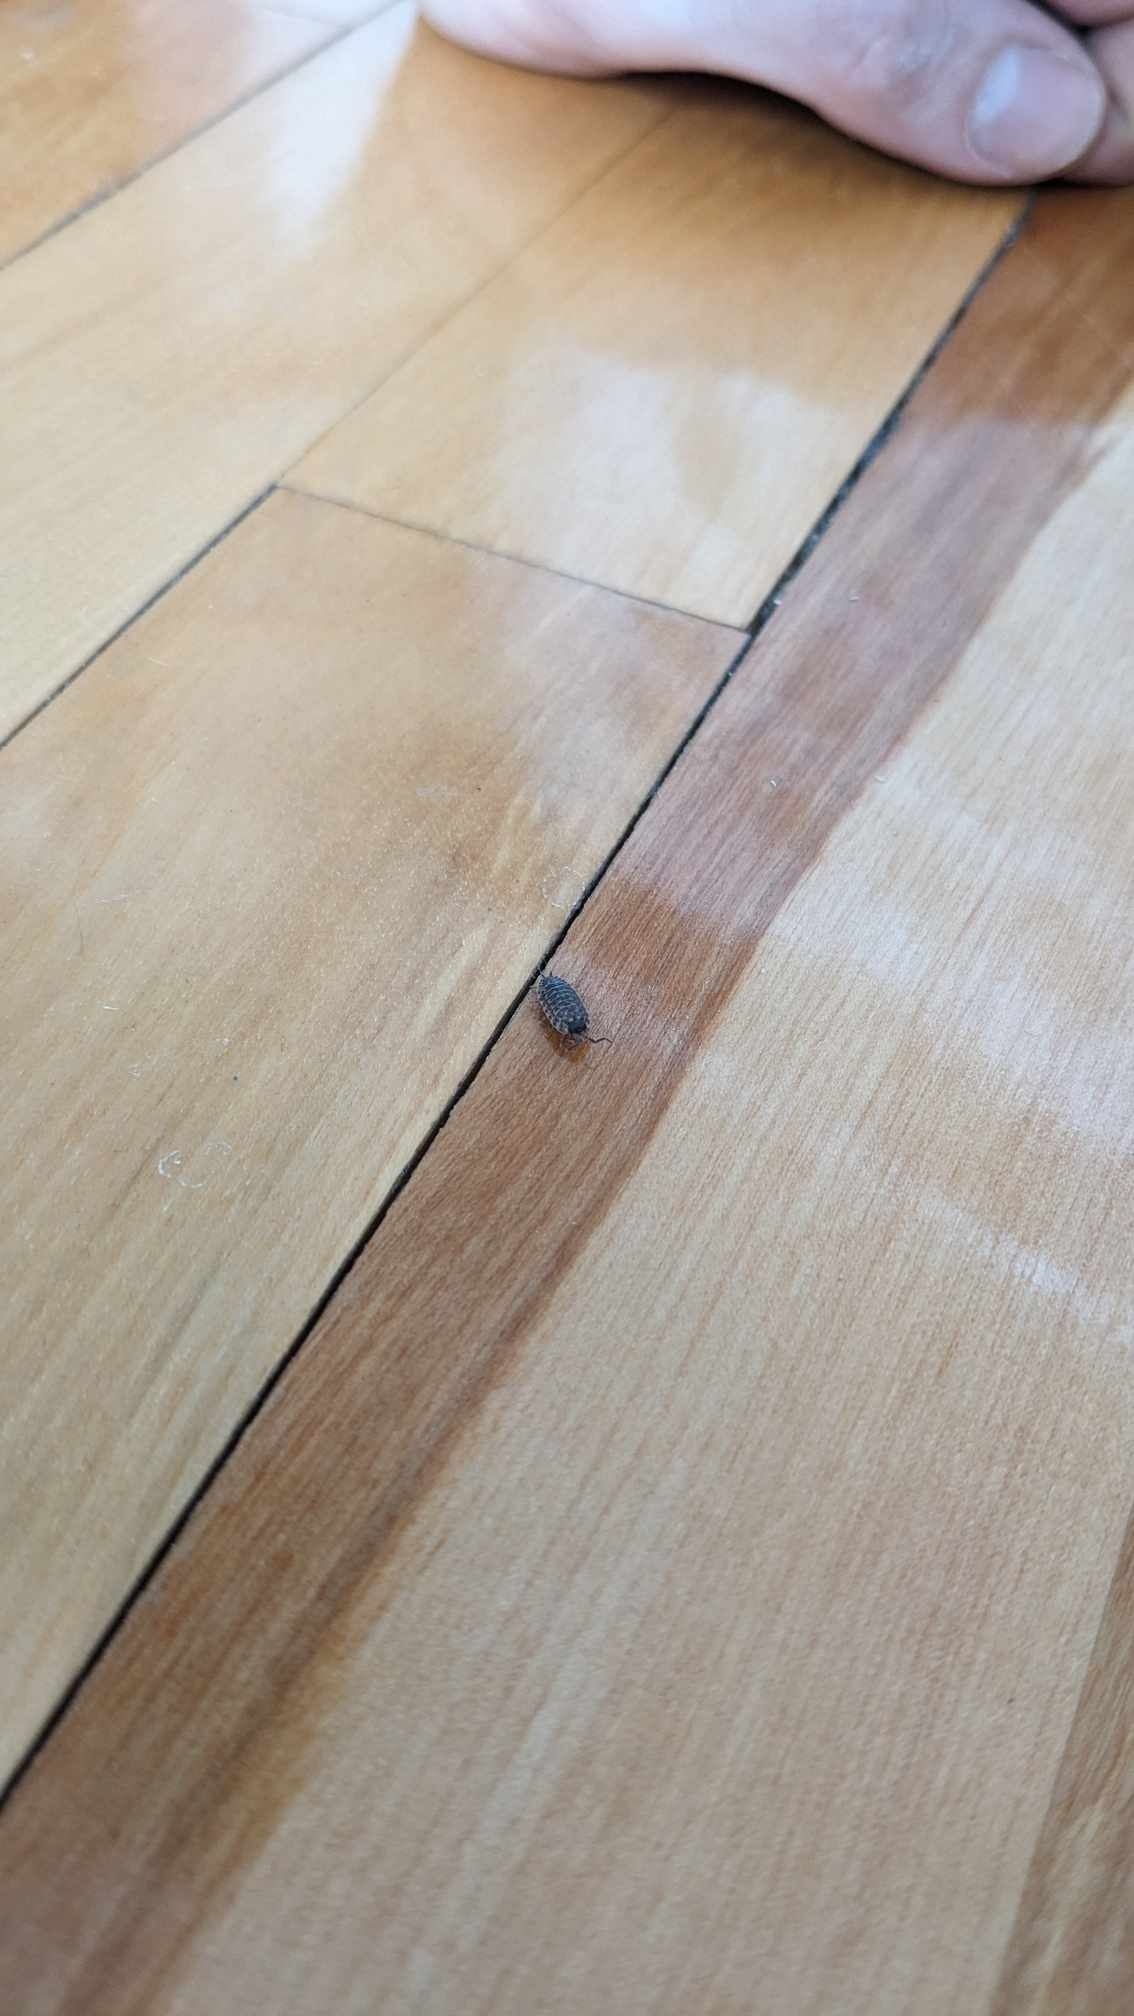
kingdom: Animalia
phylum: Arthropoda
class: Malacostraca
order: Isopoda
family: Porcellionidae
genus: Porcellio
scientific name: Porcellio spinicornis
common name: Painted woodlouse
